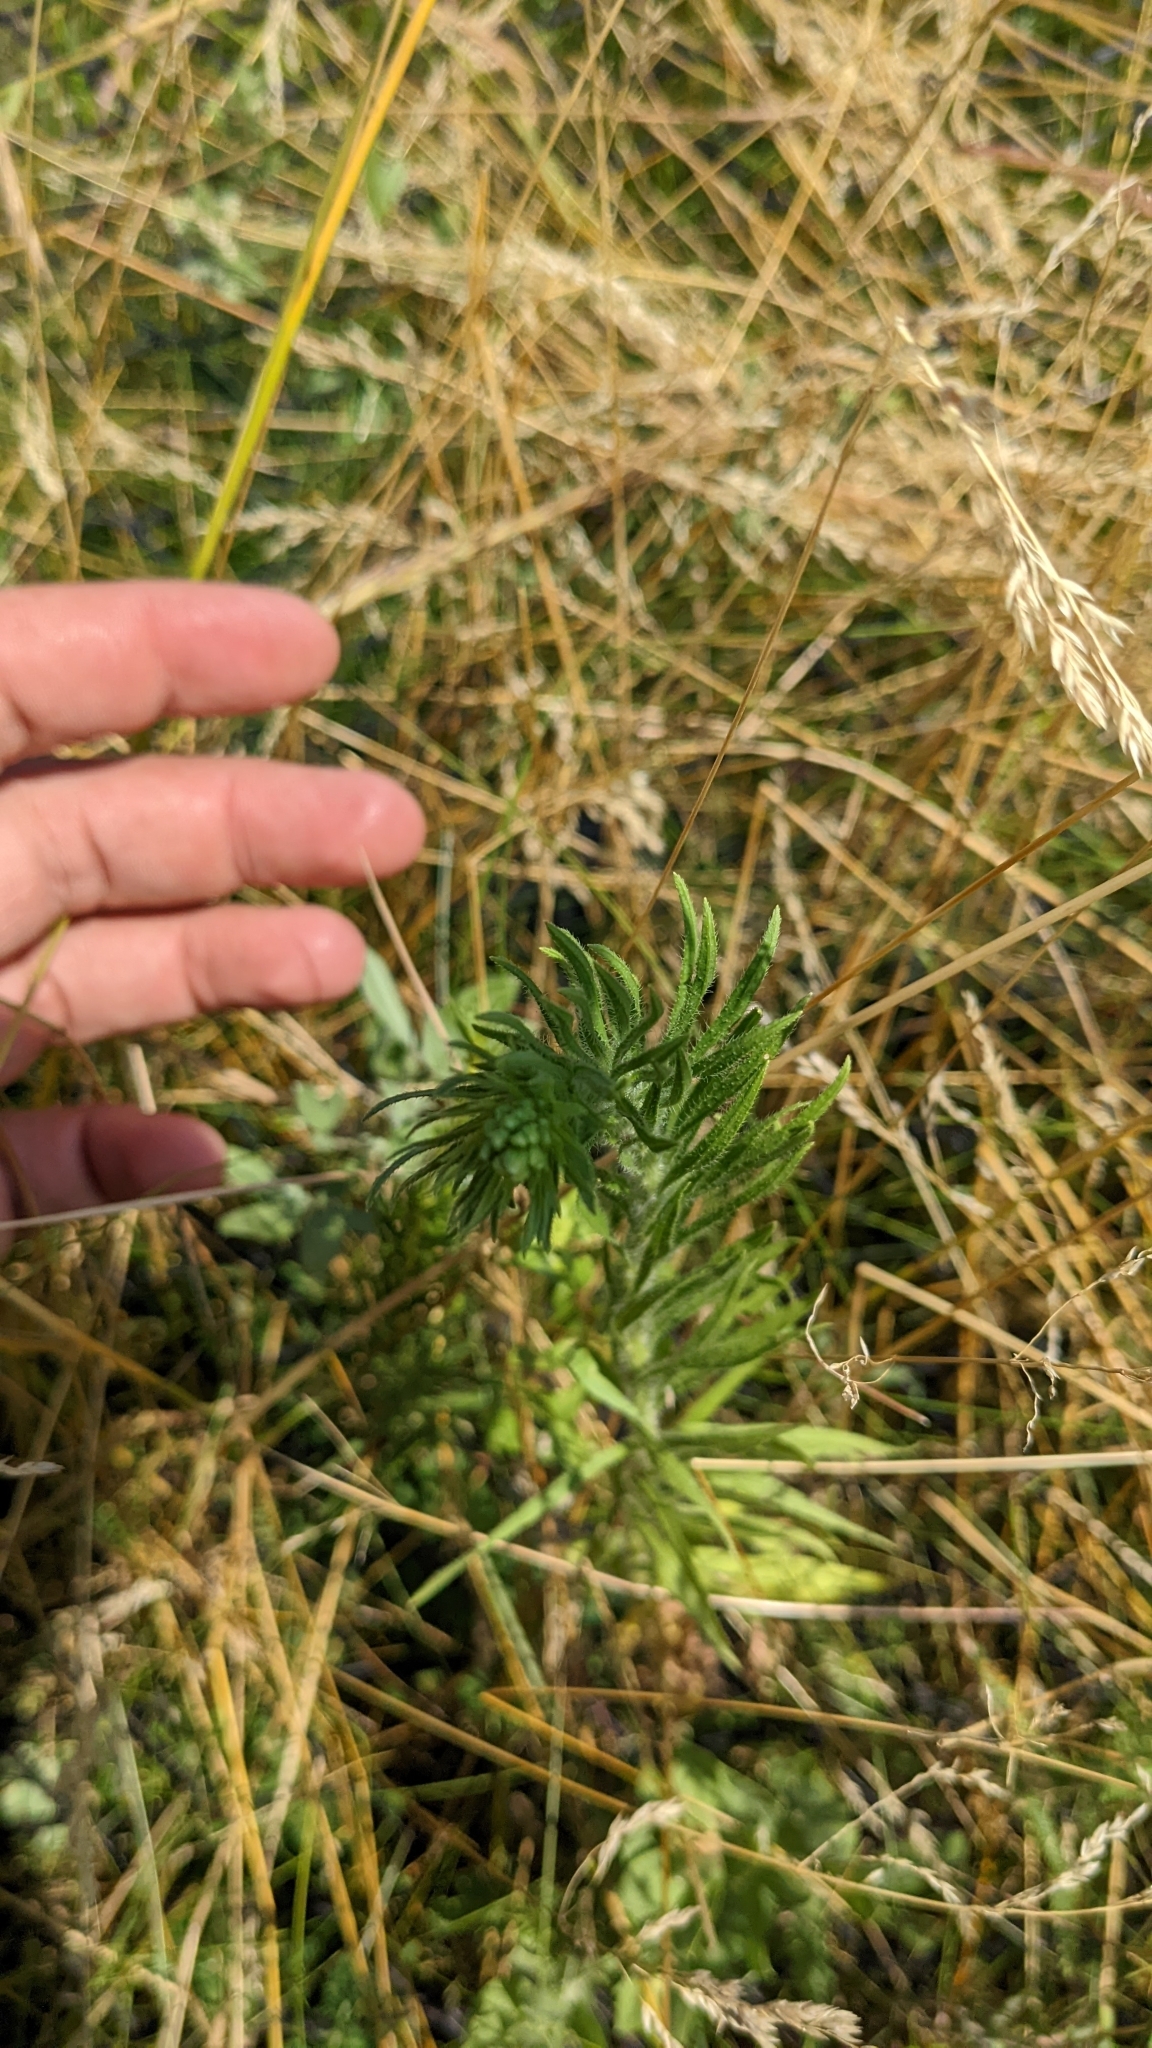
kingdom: Plantae
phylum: Tracheophyta
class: Magnoliopsida
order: Asterales
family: Asteraceae
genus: Erigeron
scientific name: Erigeron canadensis
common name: Canadian fleabane
